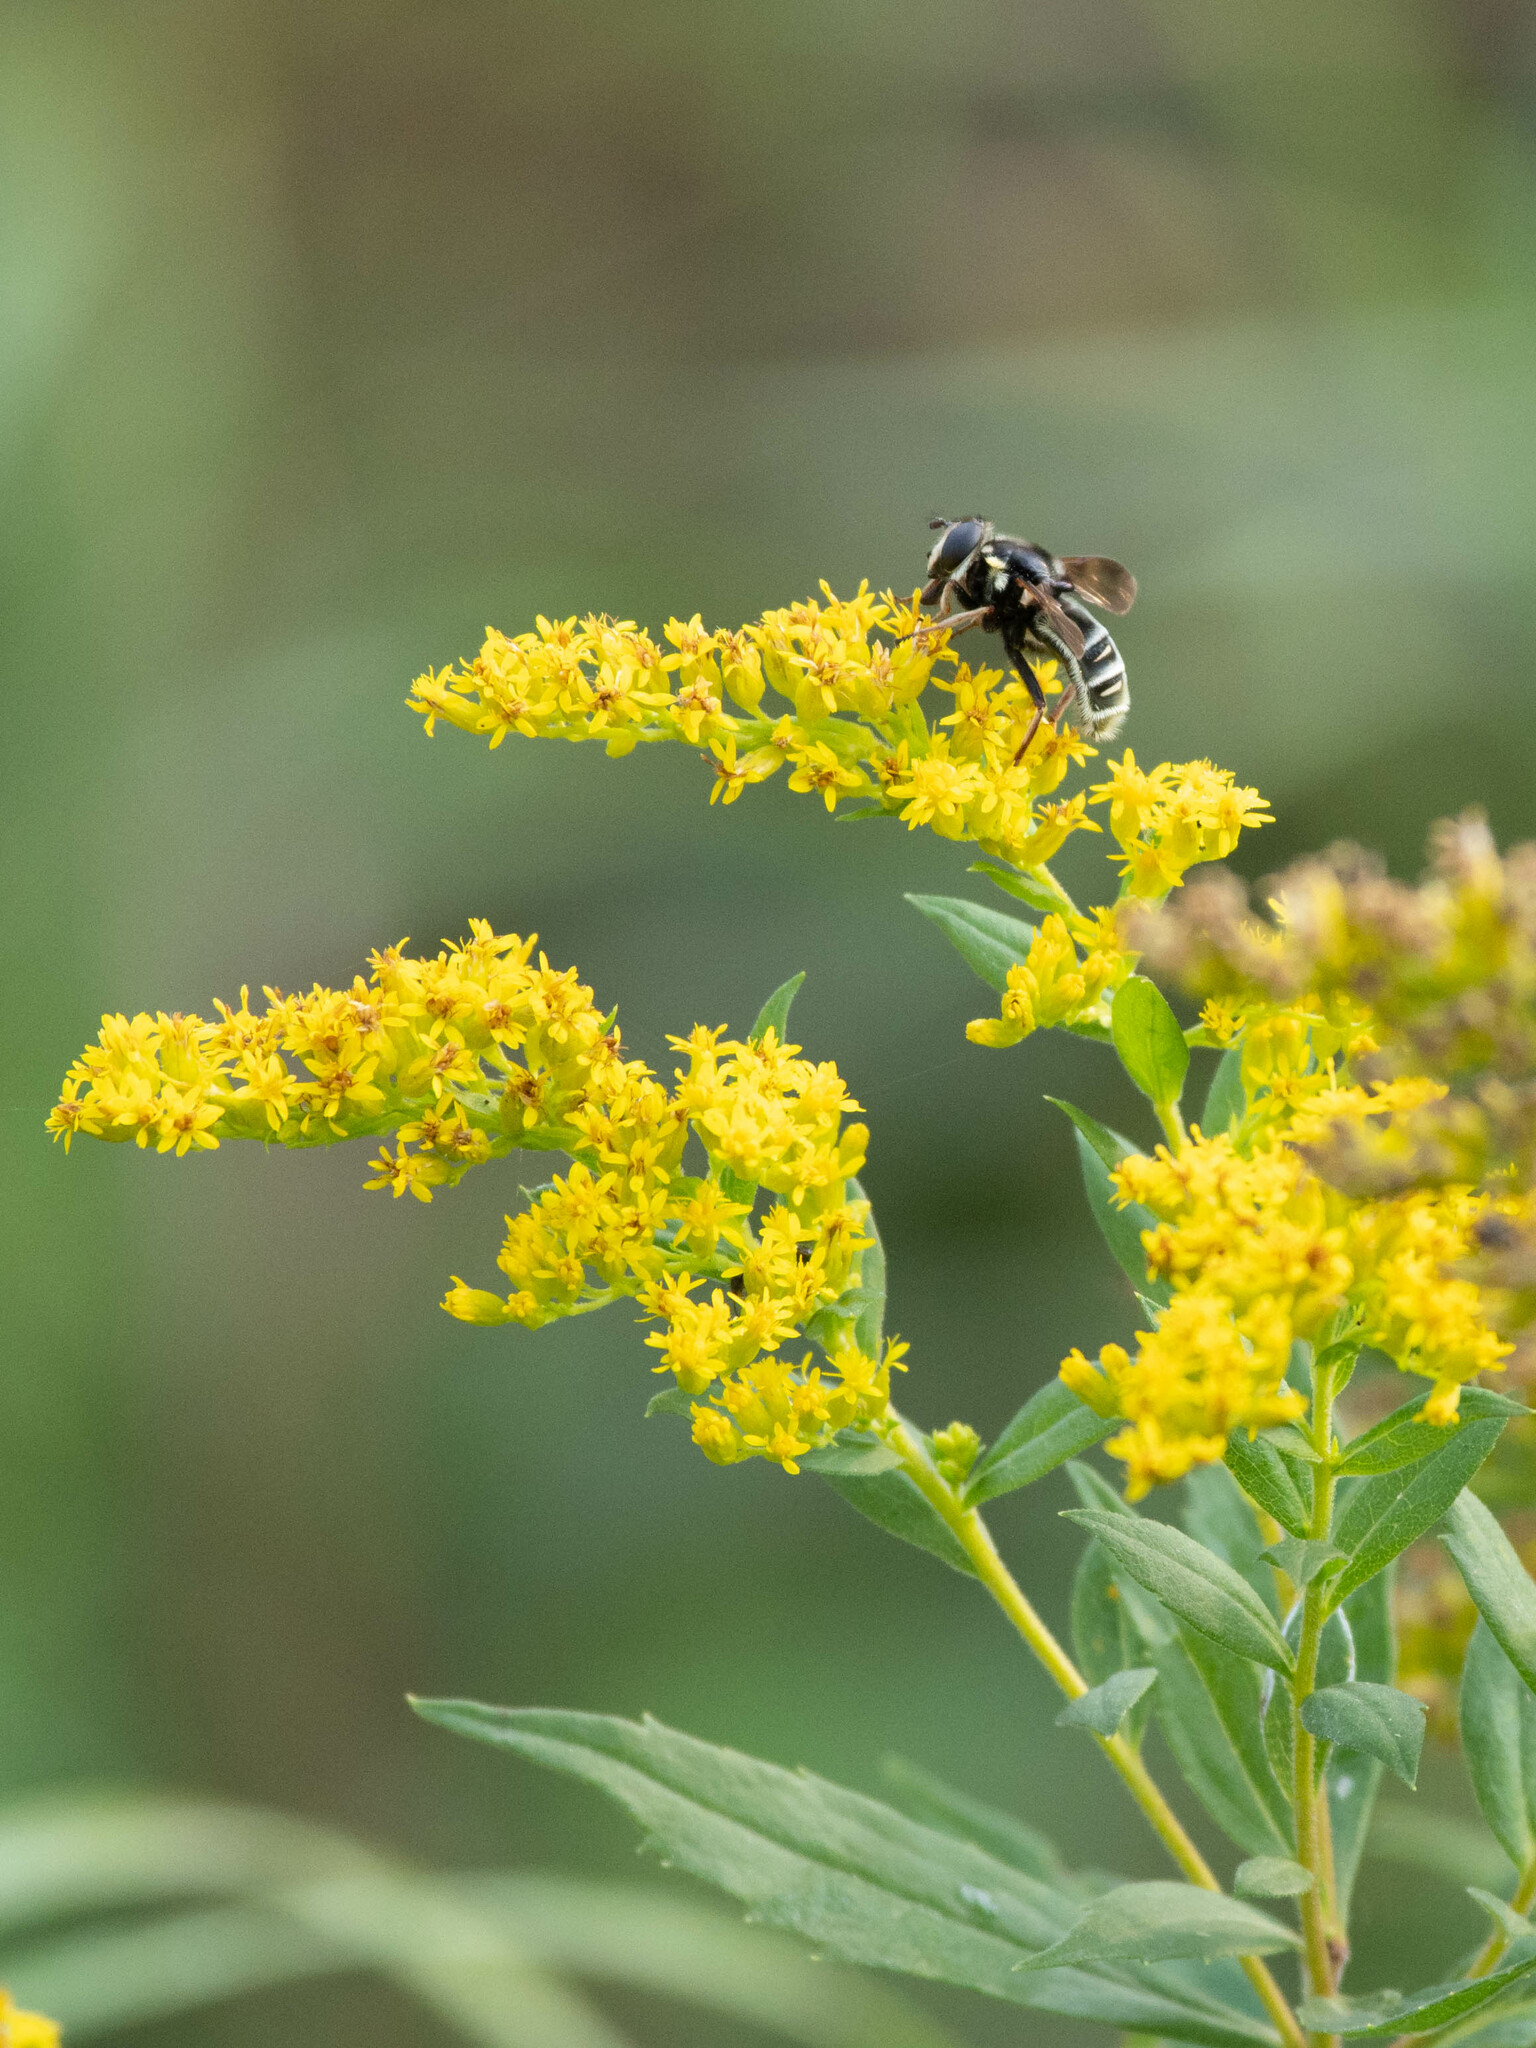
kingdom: Animalia
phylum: Arthropoda
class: Insecta
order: Diptera
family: Syrphidae
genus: Sericomyia
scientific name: Sericomyia militaris
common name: Narrow-banded pond fly
